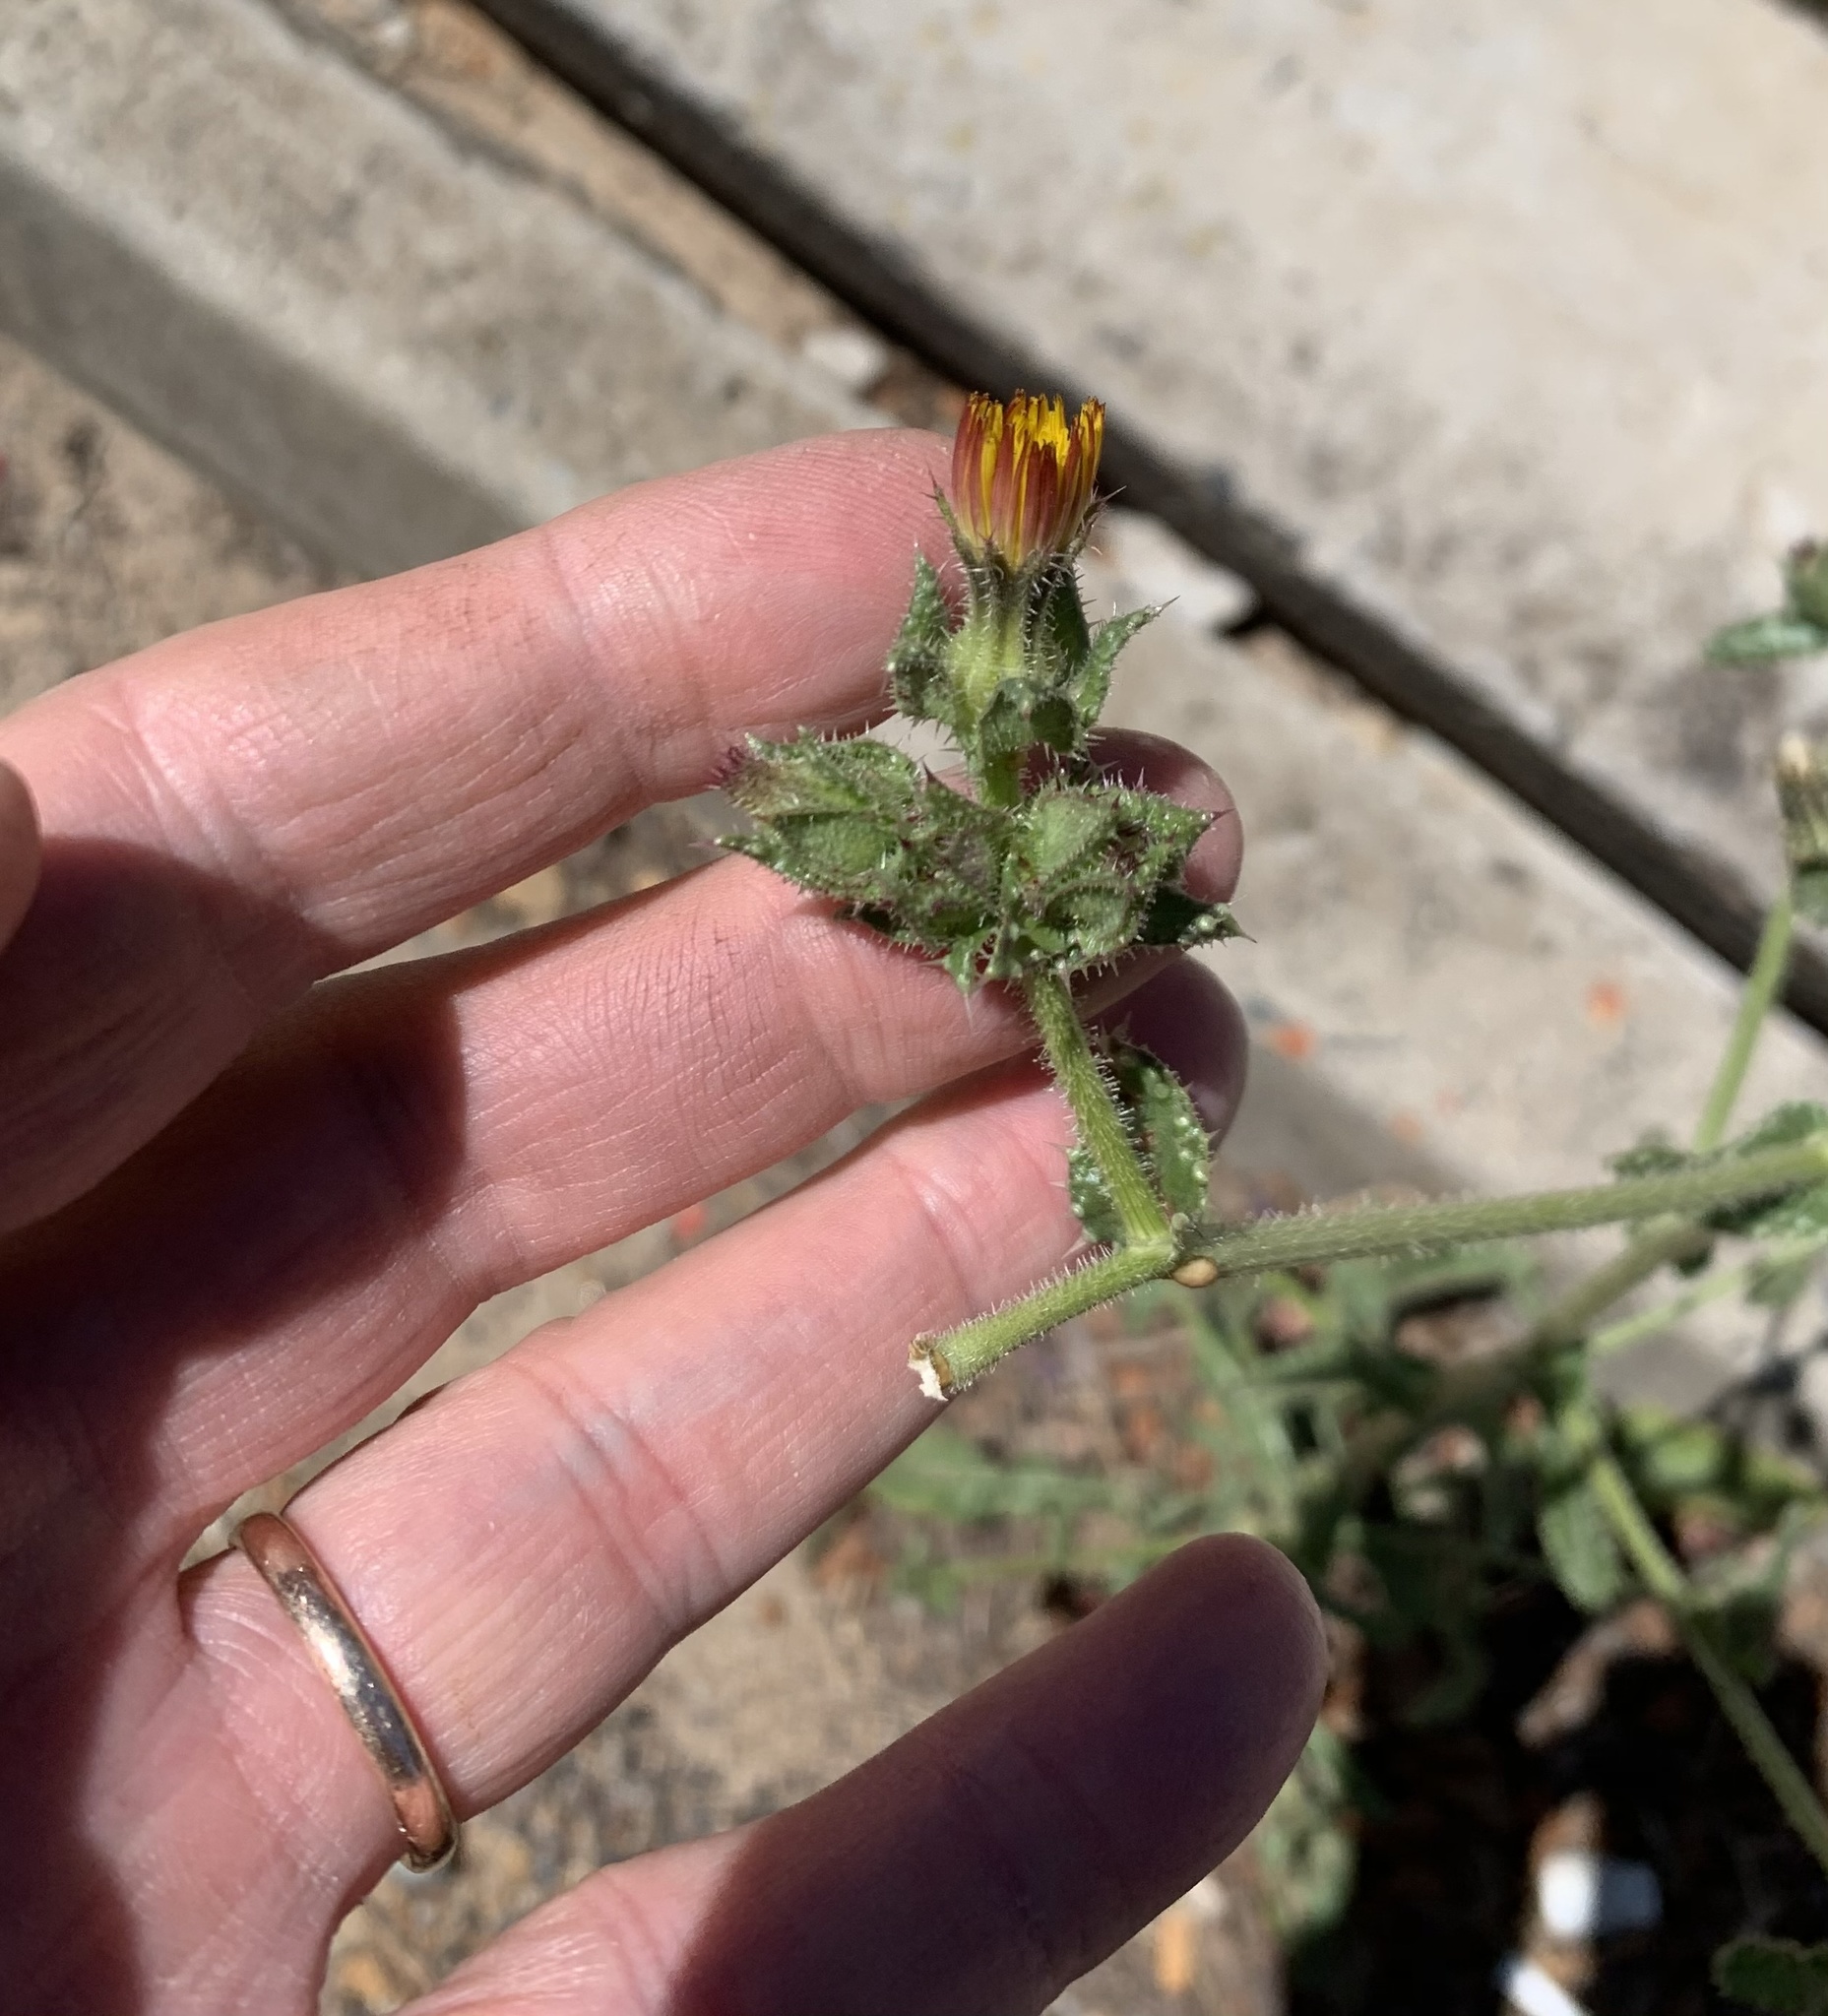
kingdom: Plantae
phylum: Tracheophyta
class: Magnoliopsida
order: Asterales
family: Asteraceae
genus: Helminthotheca
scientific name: Helminthotheca echioides
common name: Ox-tongue
